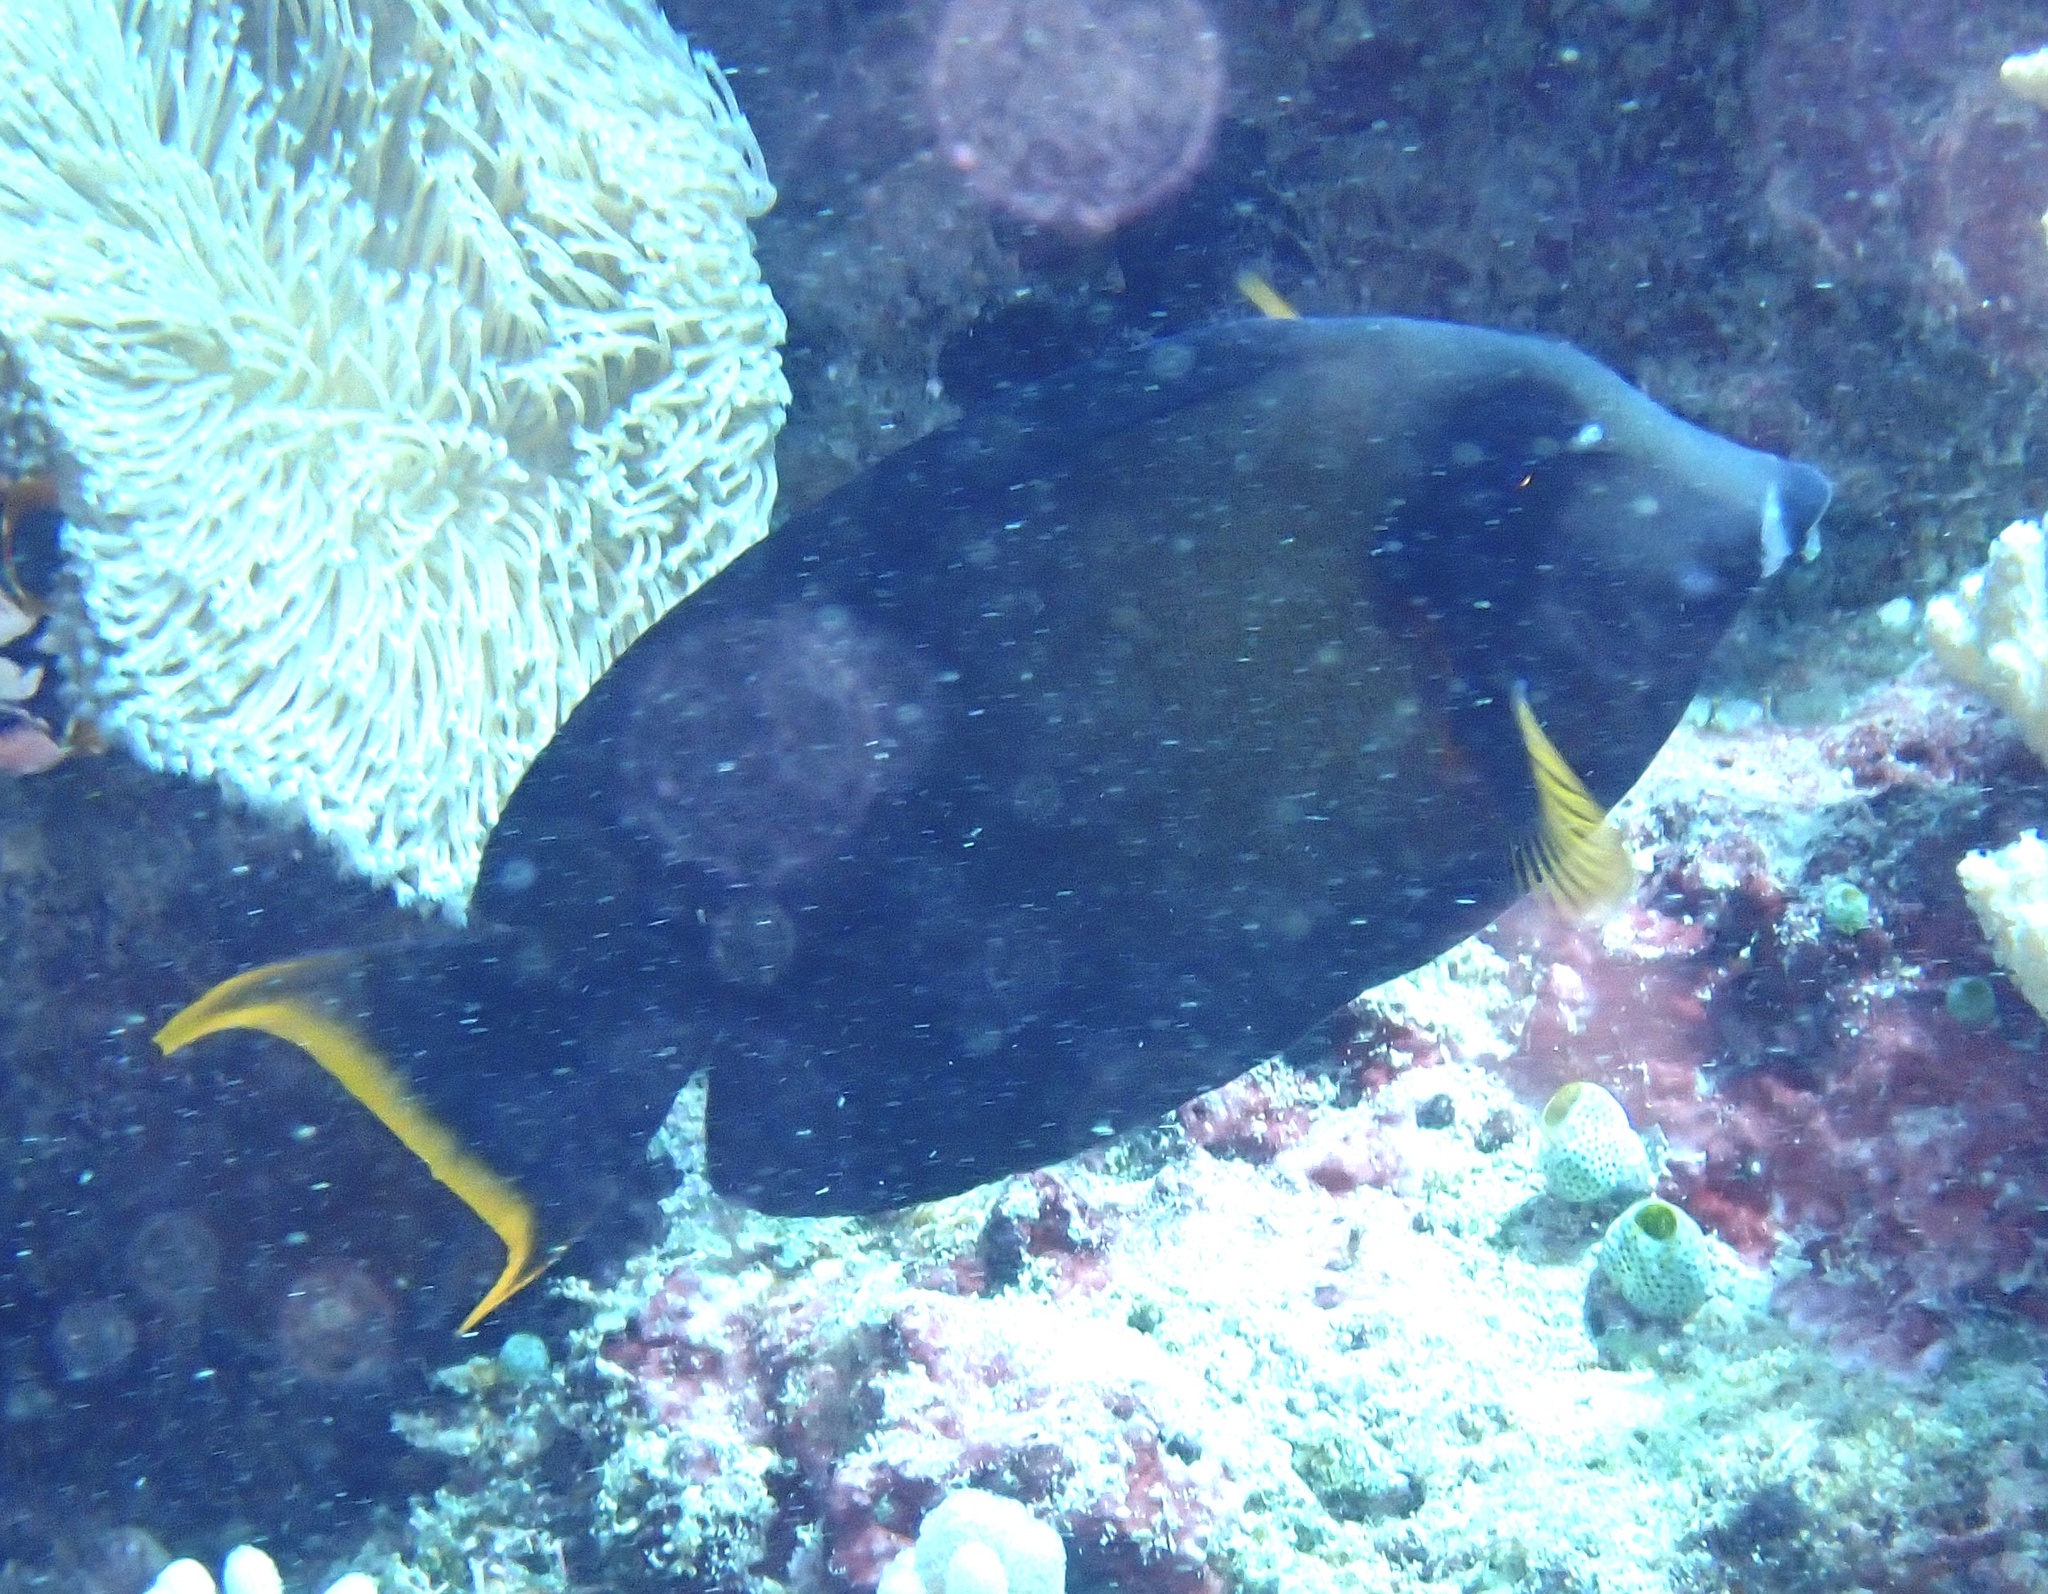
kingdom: Animalia
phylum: Chordata
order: Perciformes
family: Acanthuridae
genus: Acanthurus
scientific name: Acanthurus pyroferus
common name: Chocolate surgeonfish
